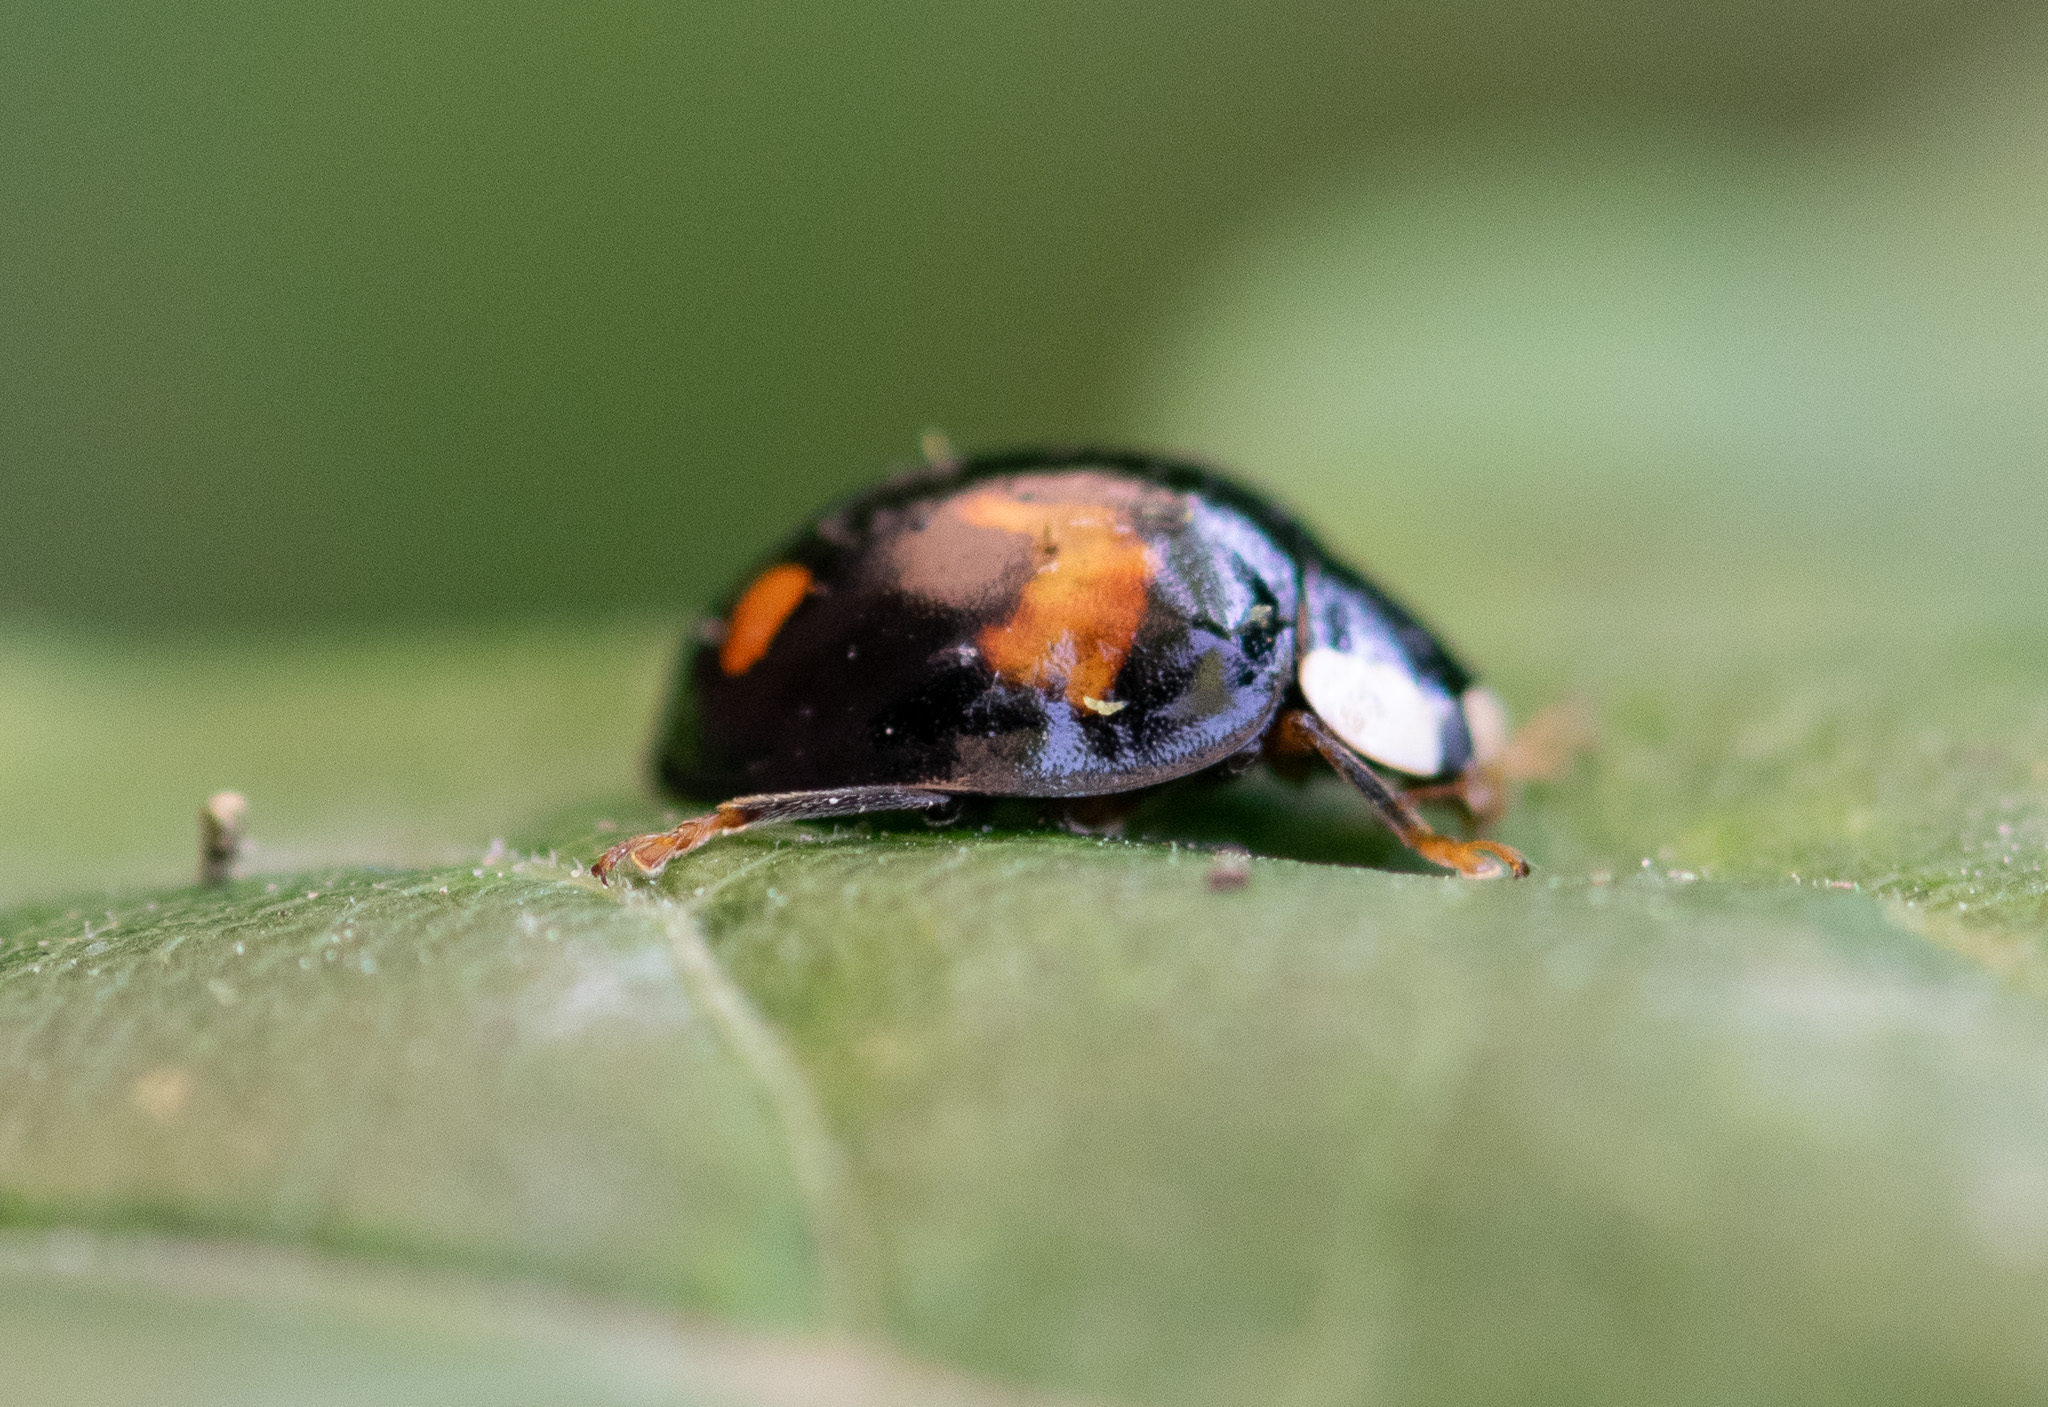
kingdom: Animalia
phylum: Arthropoda
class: Insecta
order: Coleoptera
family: Coccinellidae
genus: Harmonia
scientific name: Harmonia axyridis
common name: Harlequin ladybird
